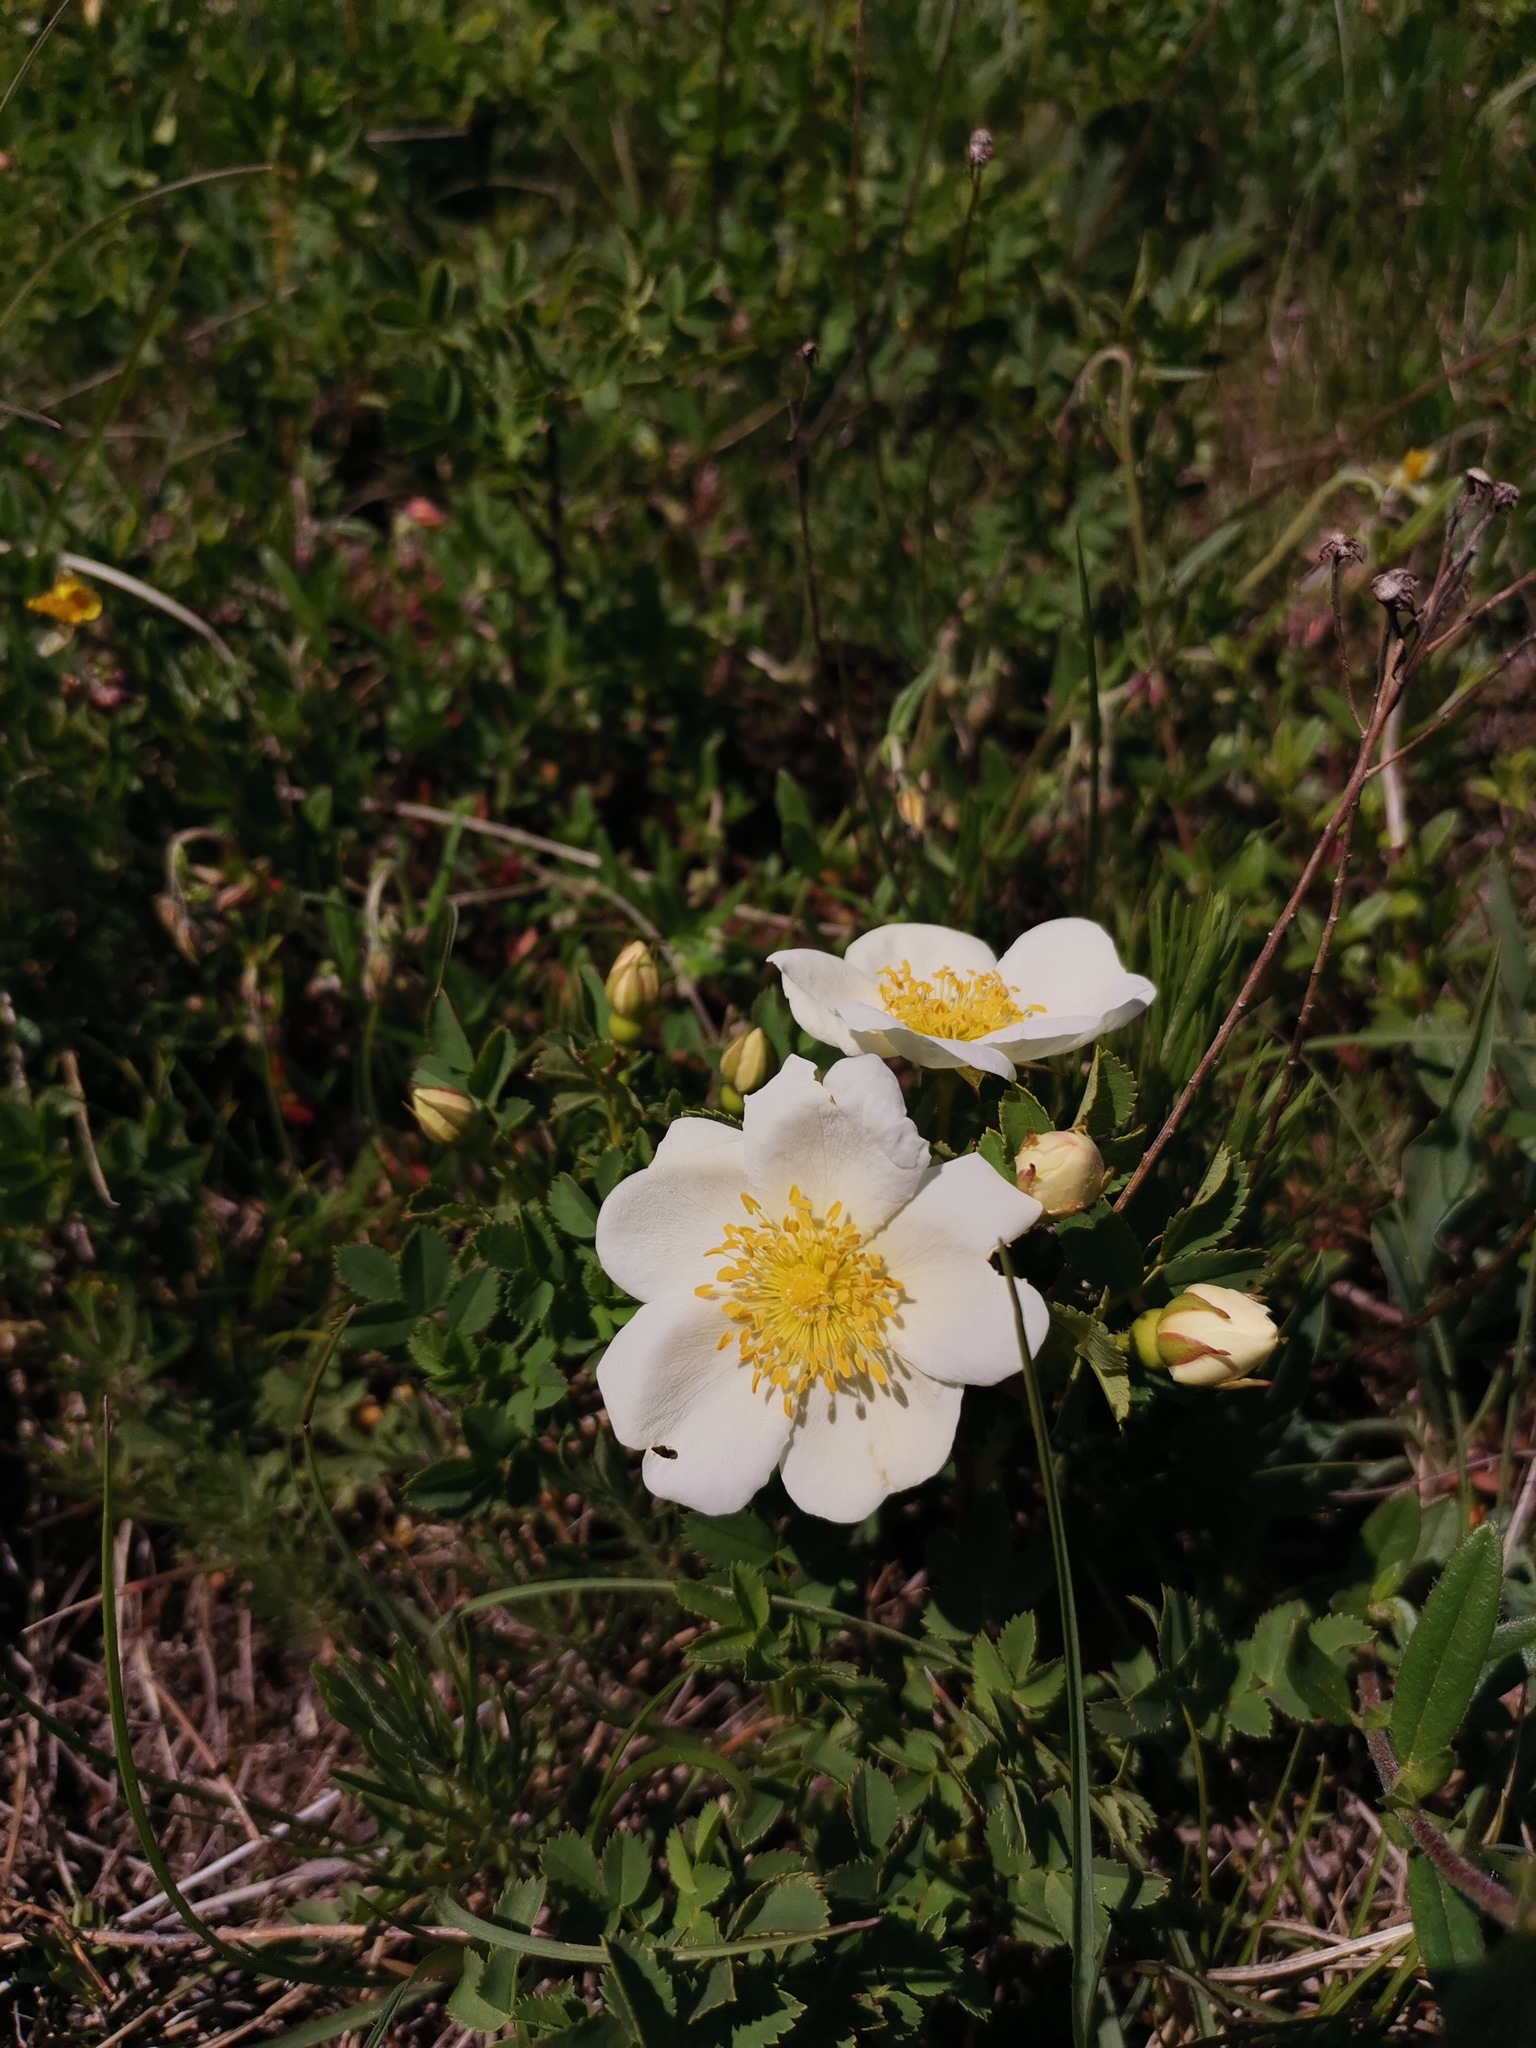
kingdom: Plantae
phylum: Tracheophyta
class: Magnoliopsida
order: Rosales
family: Rosaceae
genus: Rosa
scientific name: Rosa spinosissima
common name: Burnet rose
